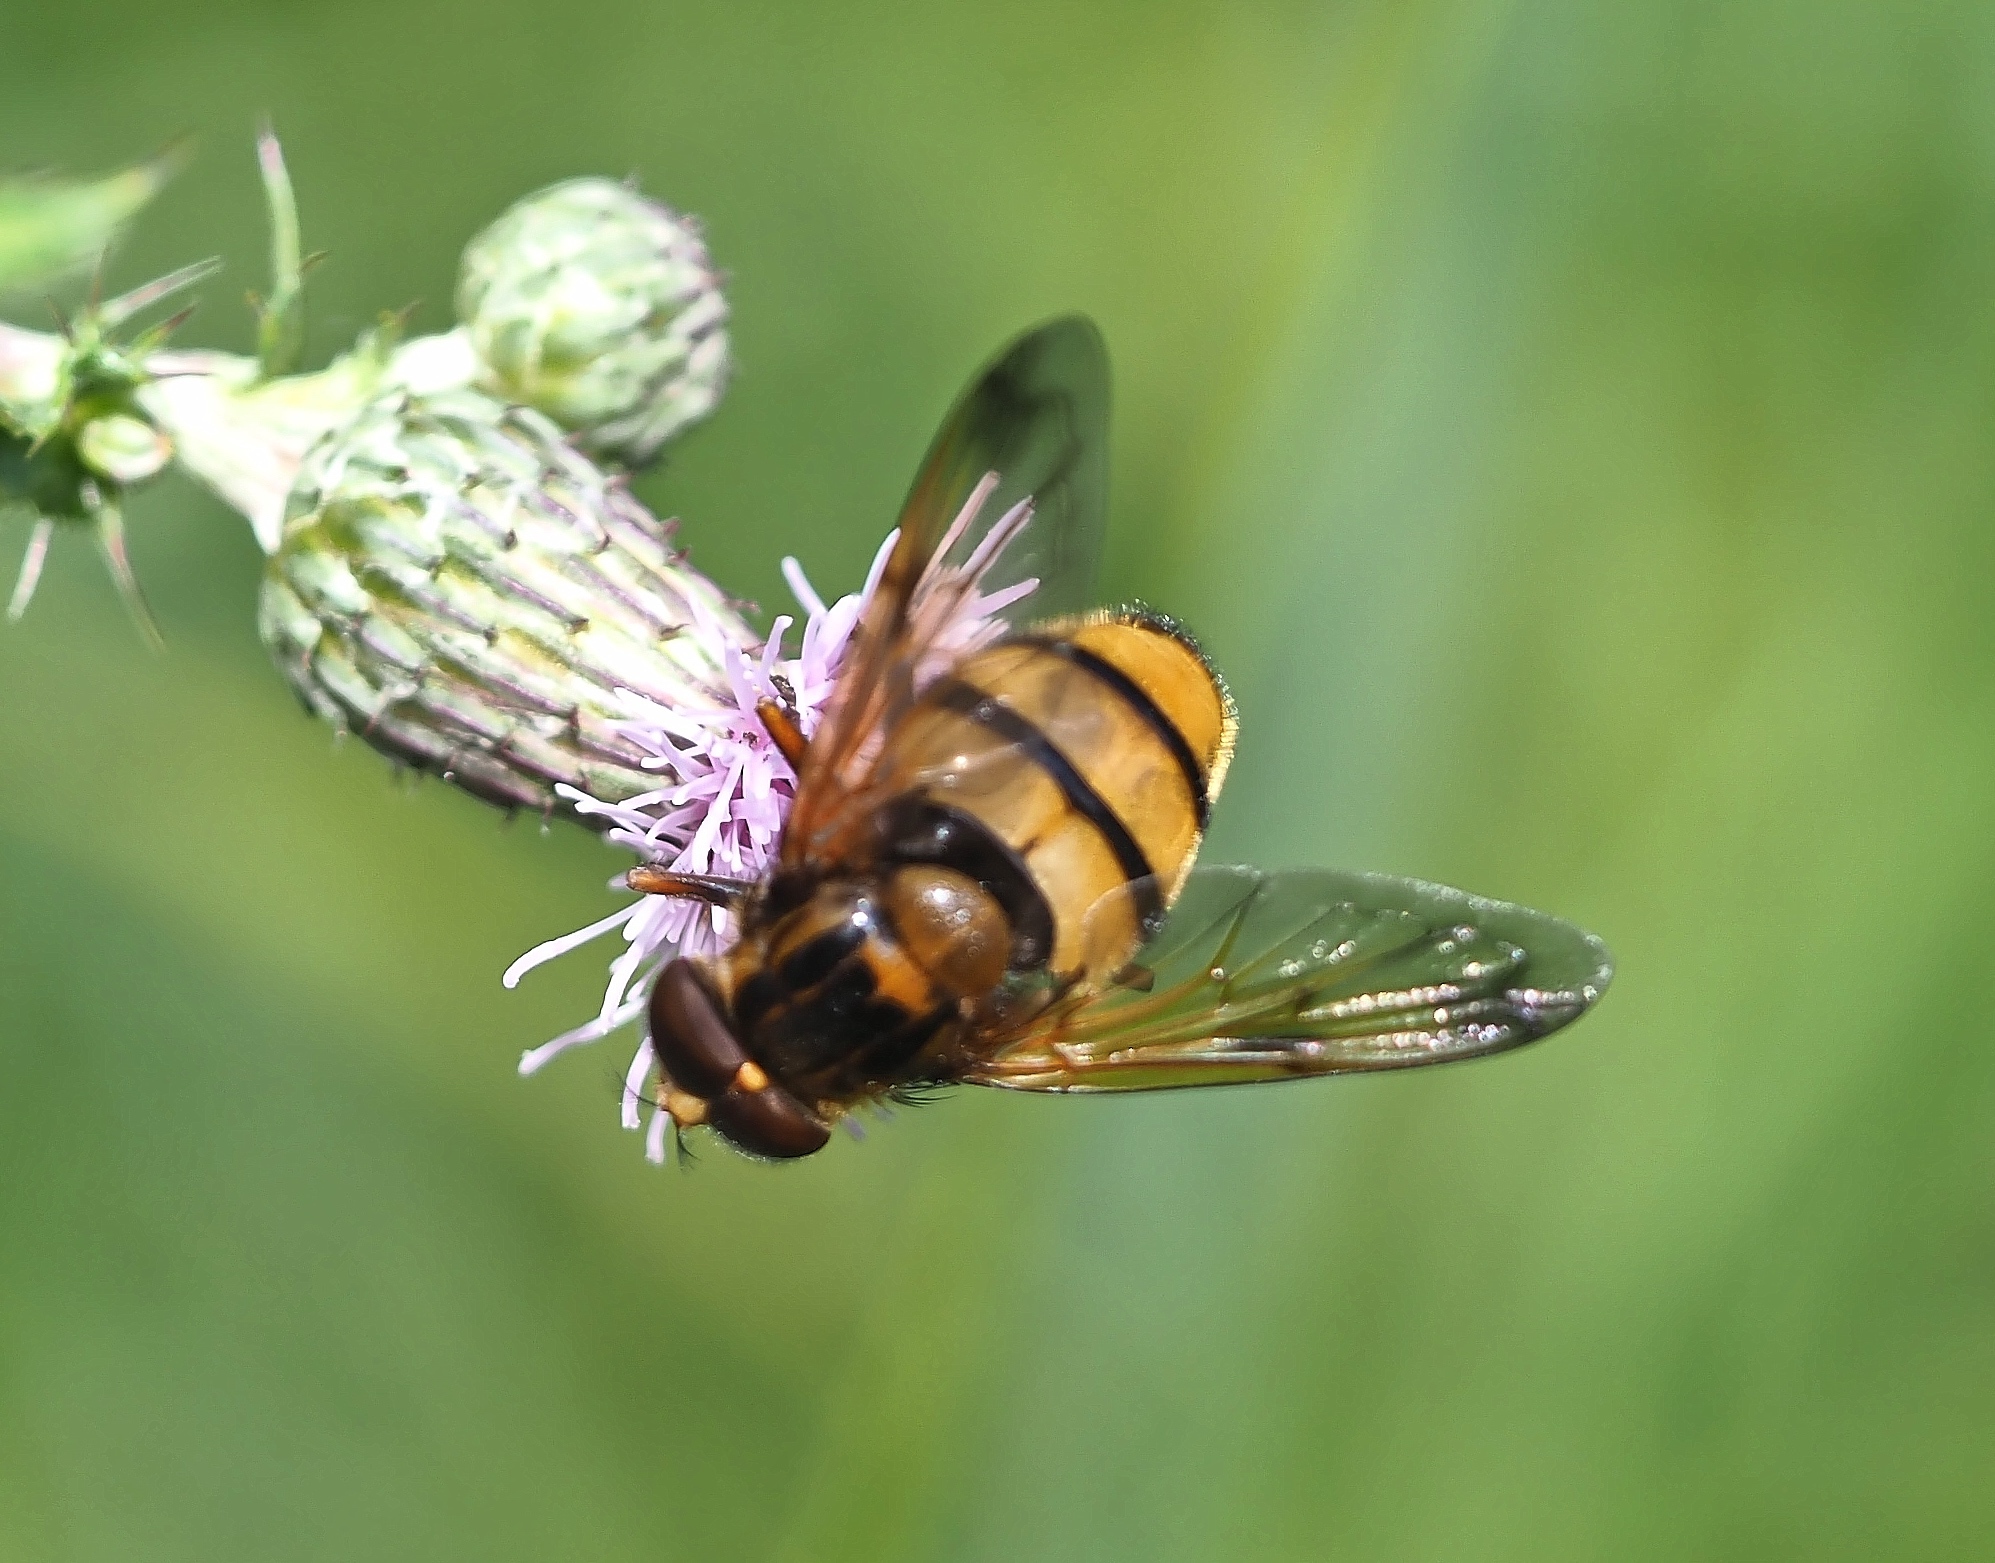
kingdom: Animalia
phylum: Arthropoda
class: Insecta
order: Diptera
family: Syrphidae
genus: Volucella
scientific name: Volucella inanis
